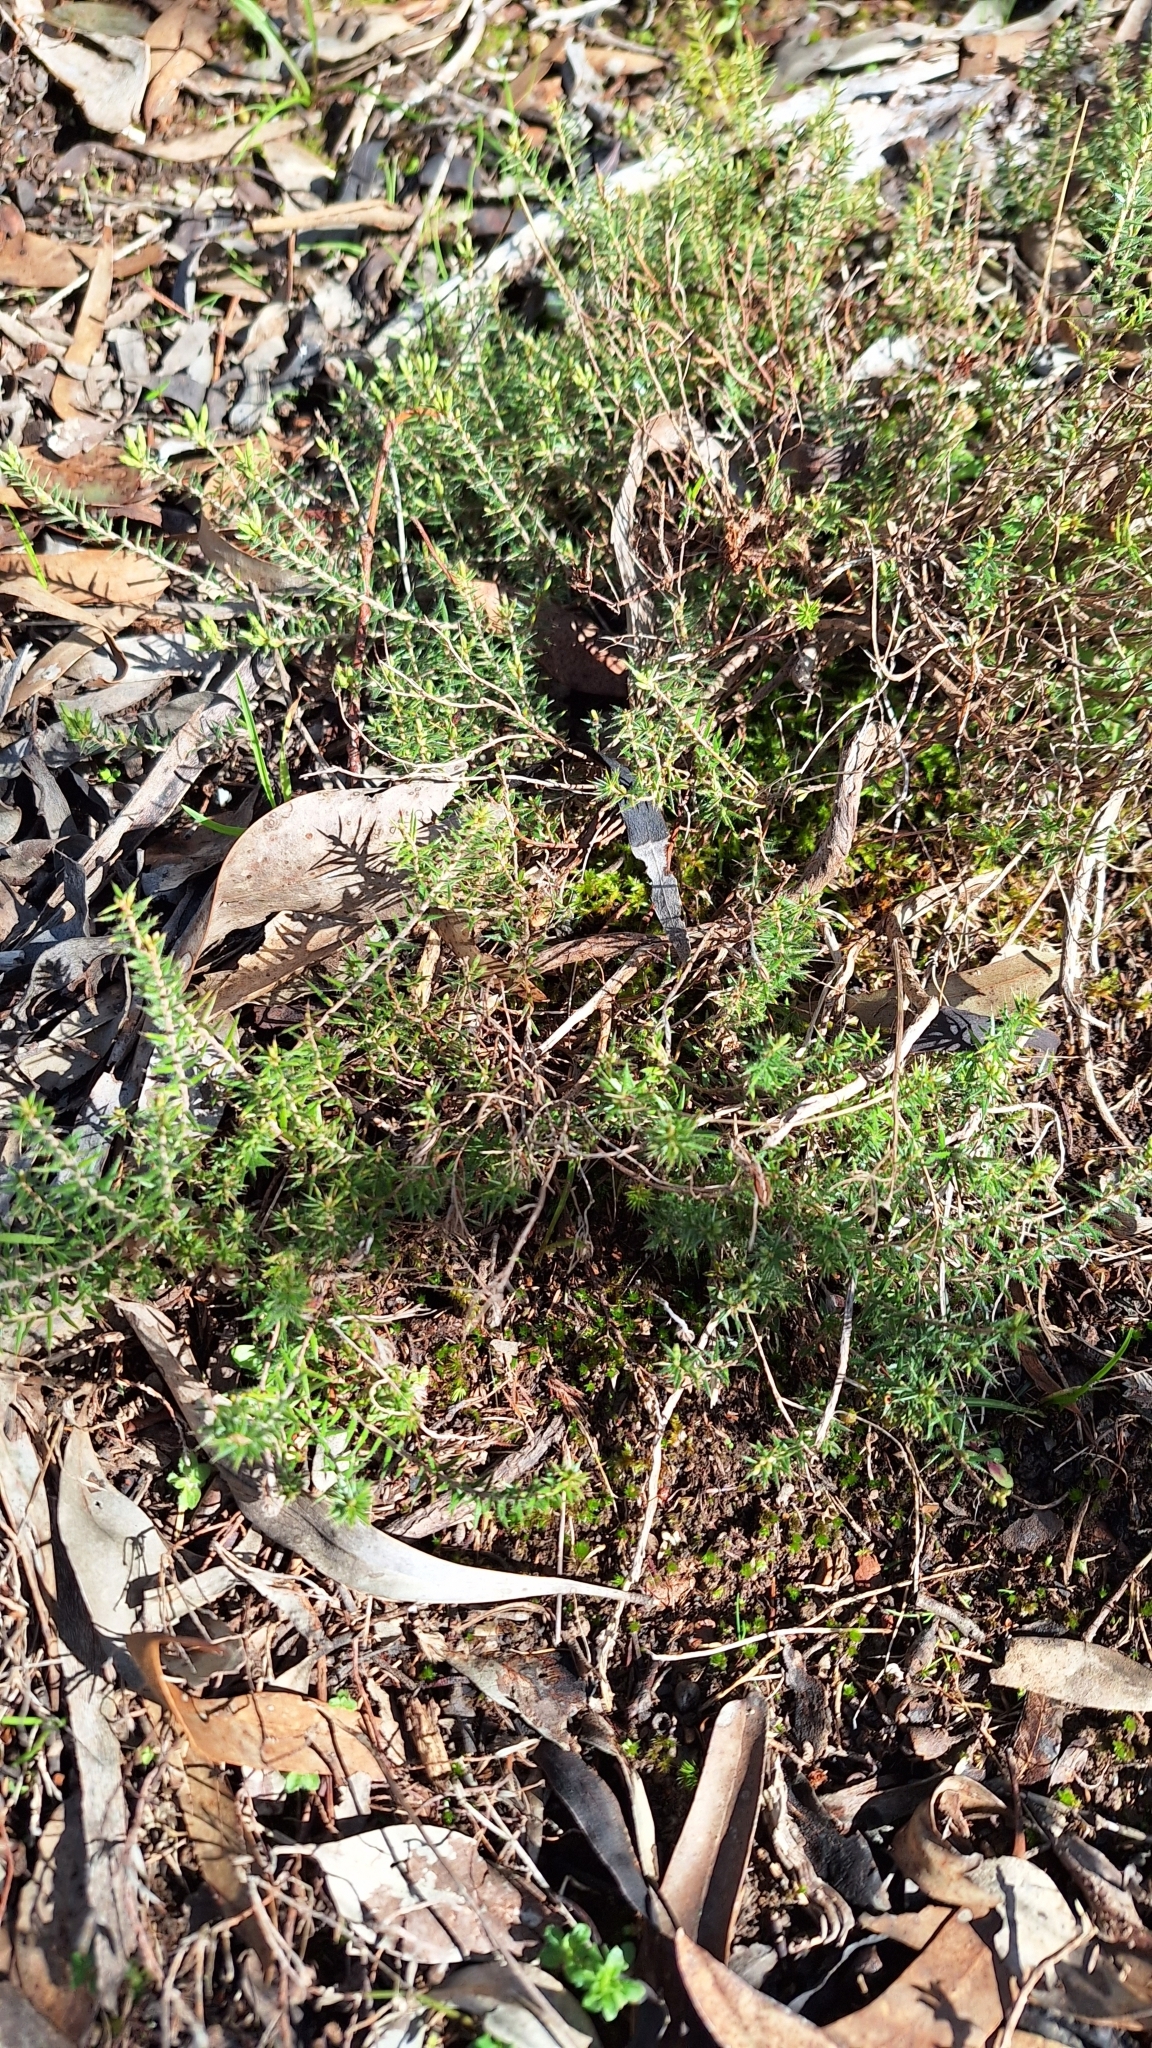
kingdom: Plantae
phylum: Tracheophyta
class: Magnoliopsida
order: Ericales
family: Ericaceae
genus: Acrotriche
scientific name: Acrotriche serrulata
